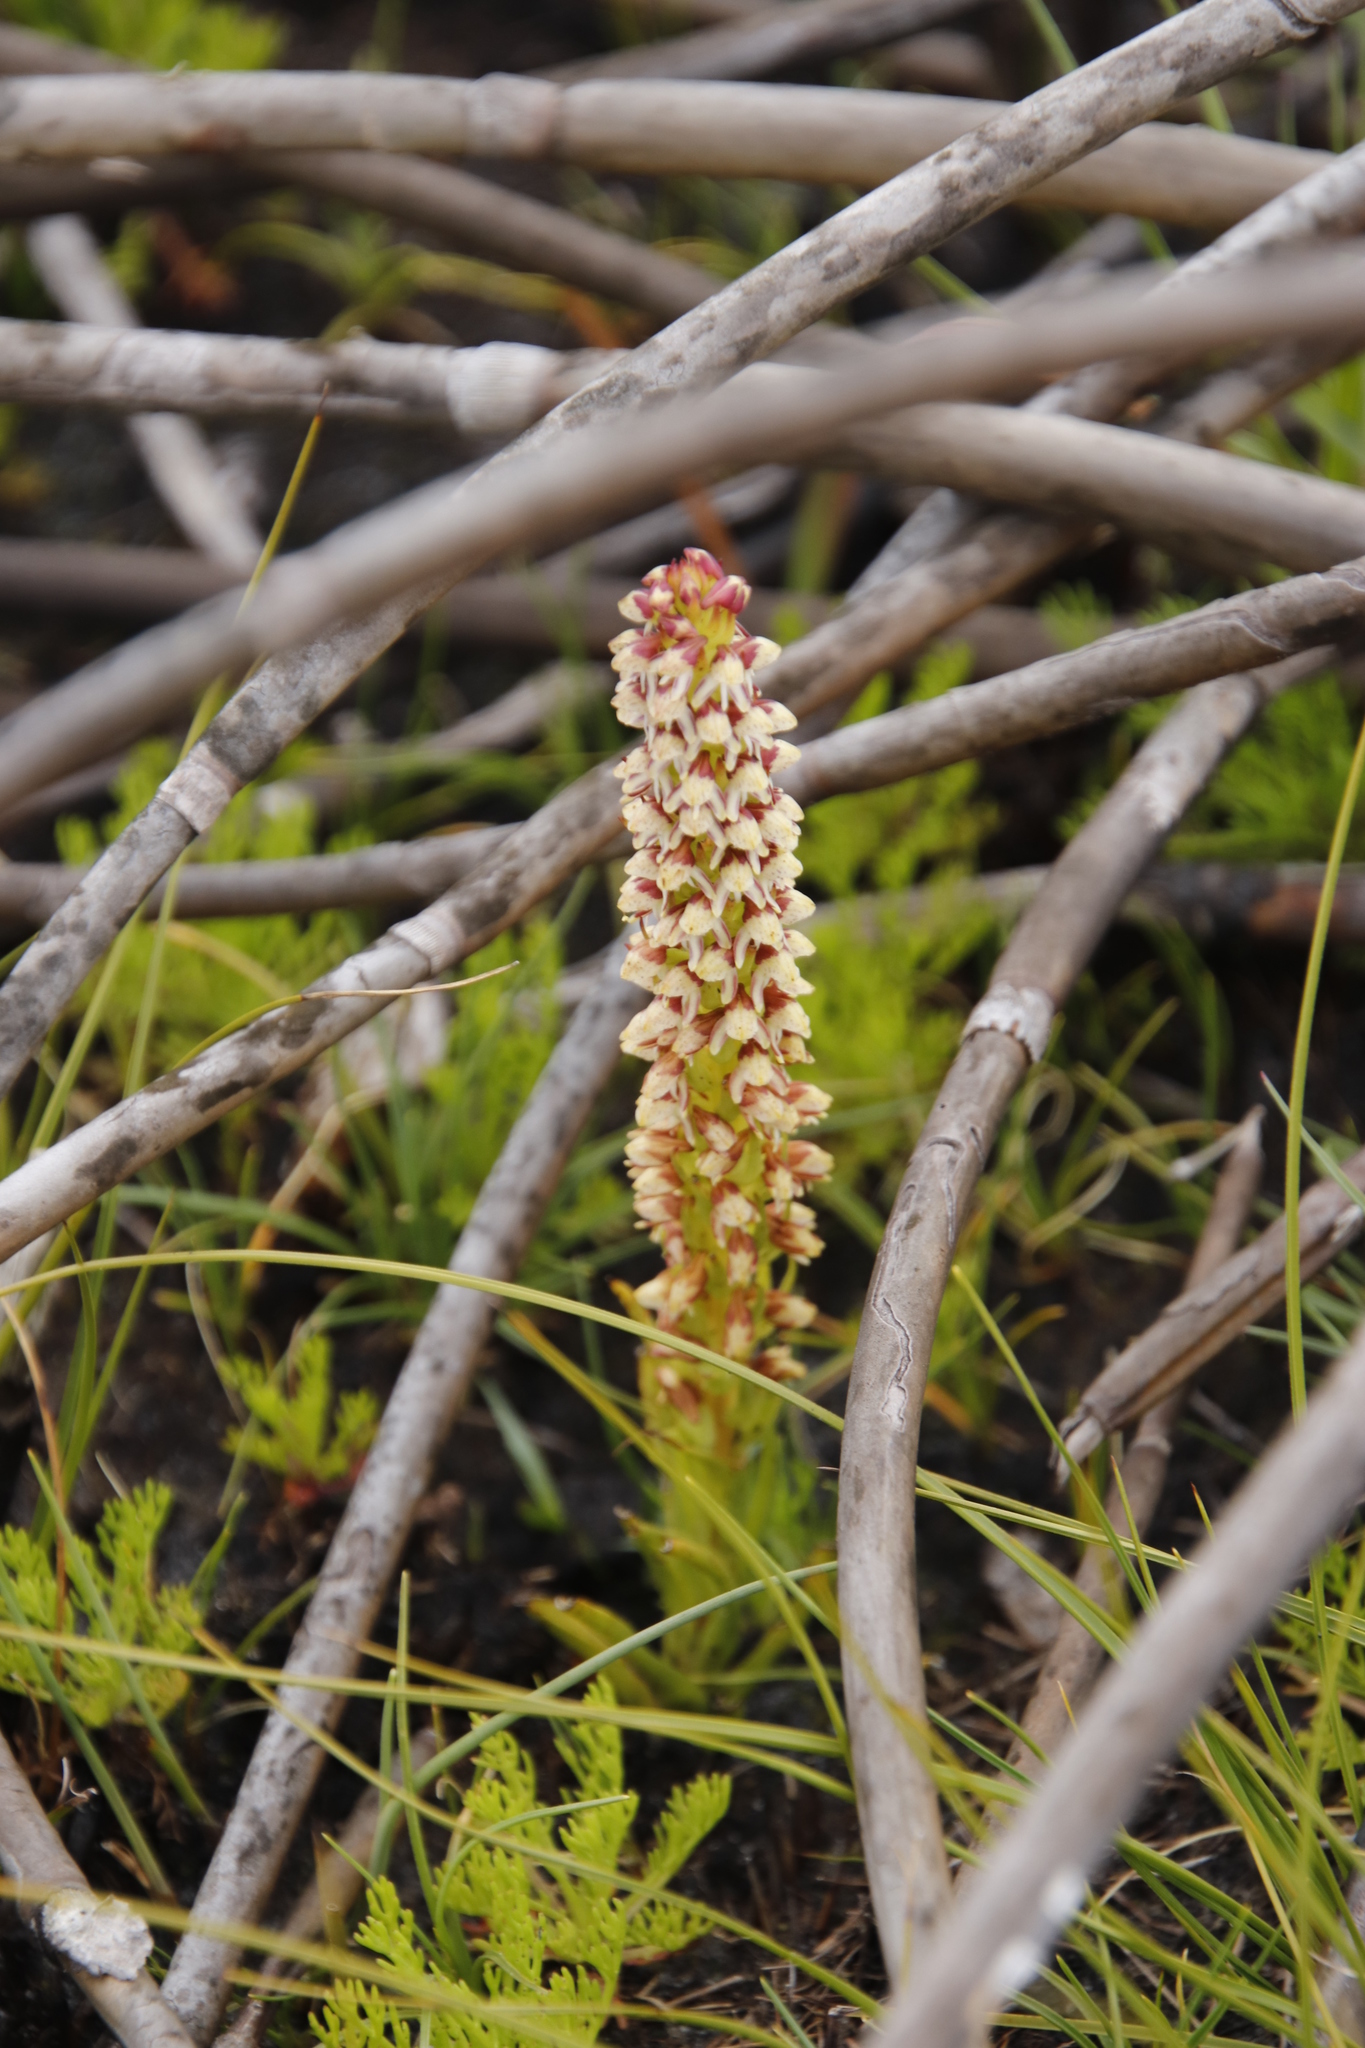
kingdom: Plantae
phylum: Tracheophyta
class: Liliopsida
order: Asparagales
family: Orchidaceae
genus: Disa
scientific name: Disa obtusa
